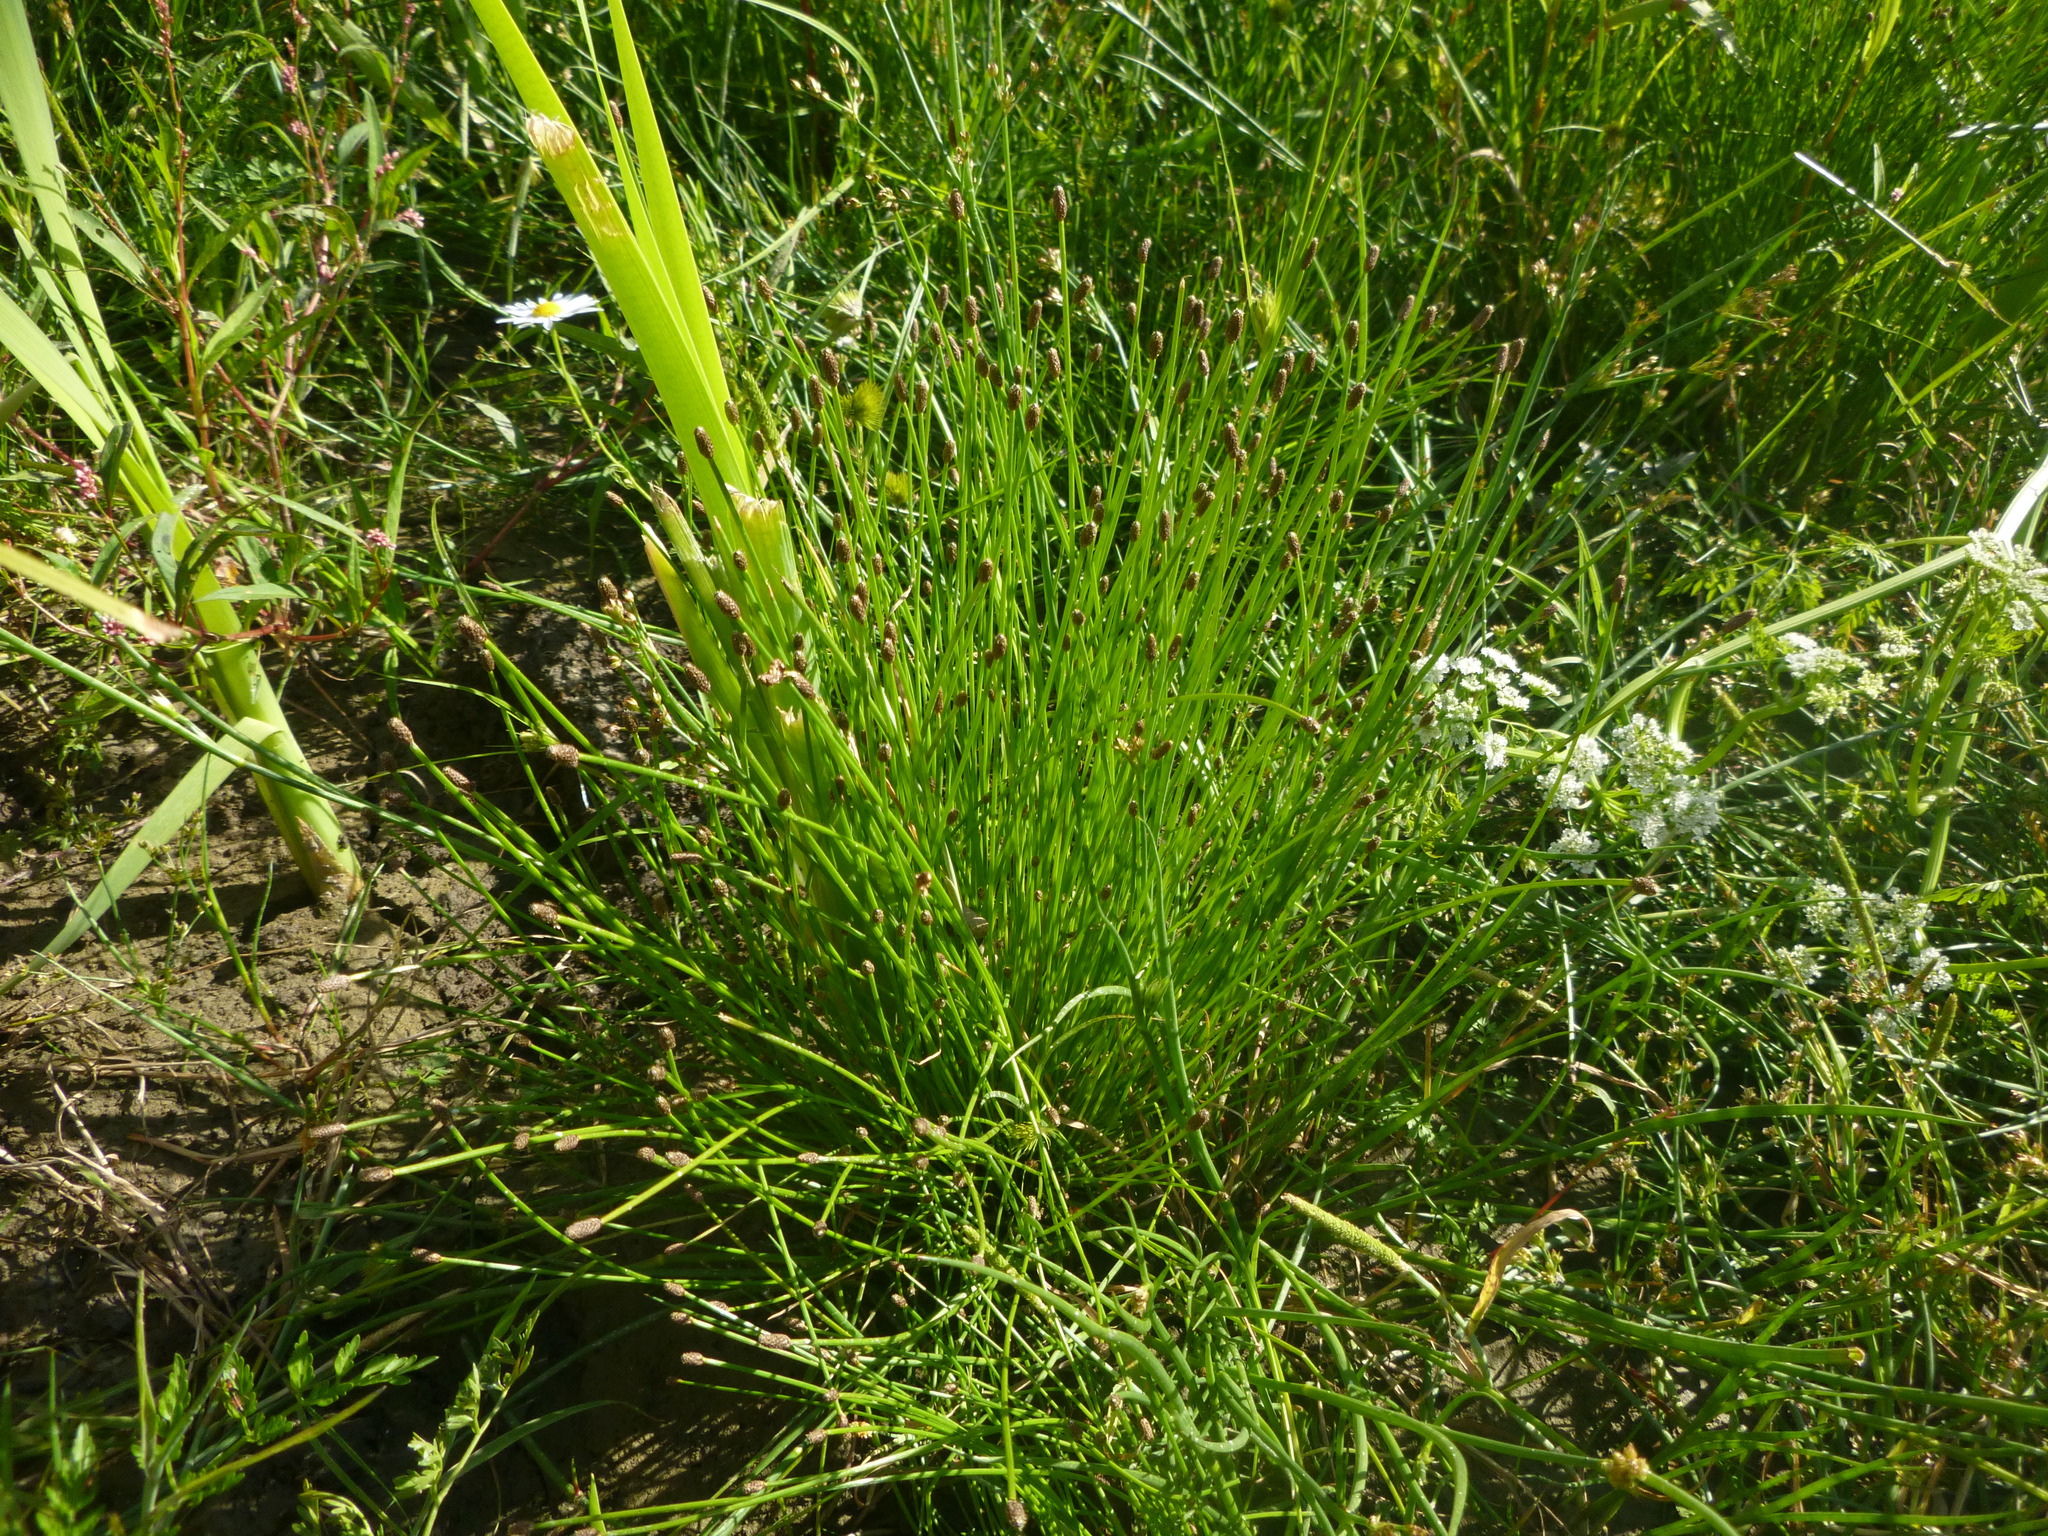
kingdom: Plantae
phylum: Tracheophyta
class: Liliopsida
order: Poales
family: Cyperaceae
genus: Eleocharis
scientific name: Eleocharis ovata
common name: Oval spike-rush
